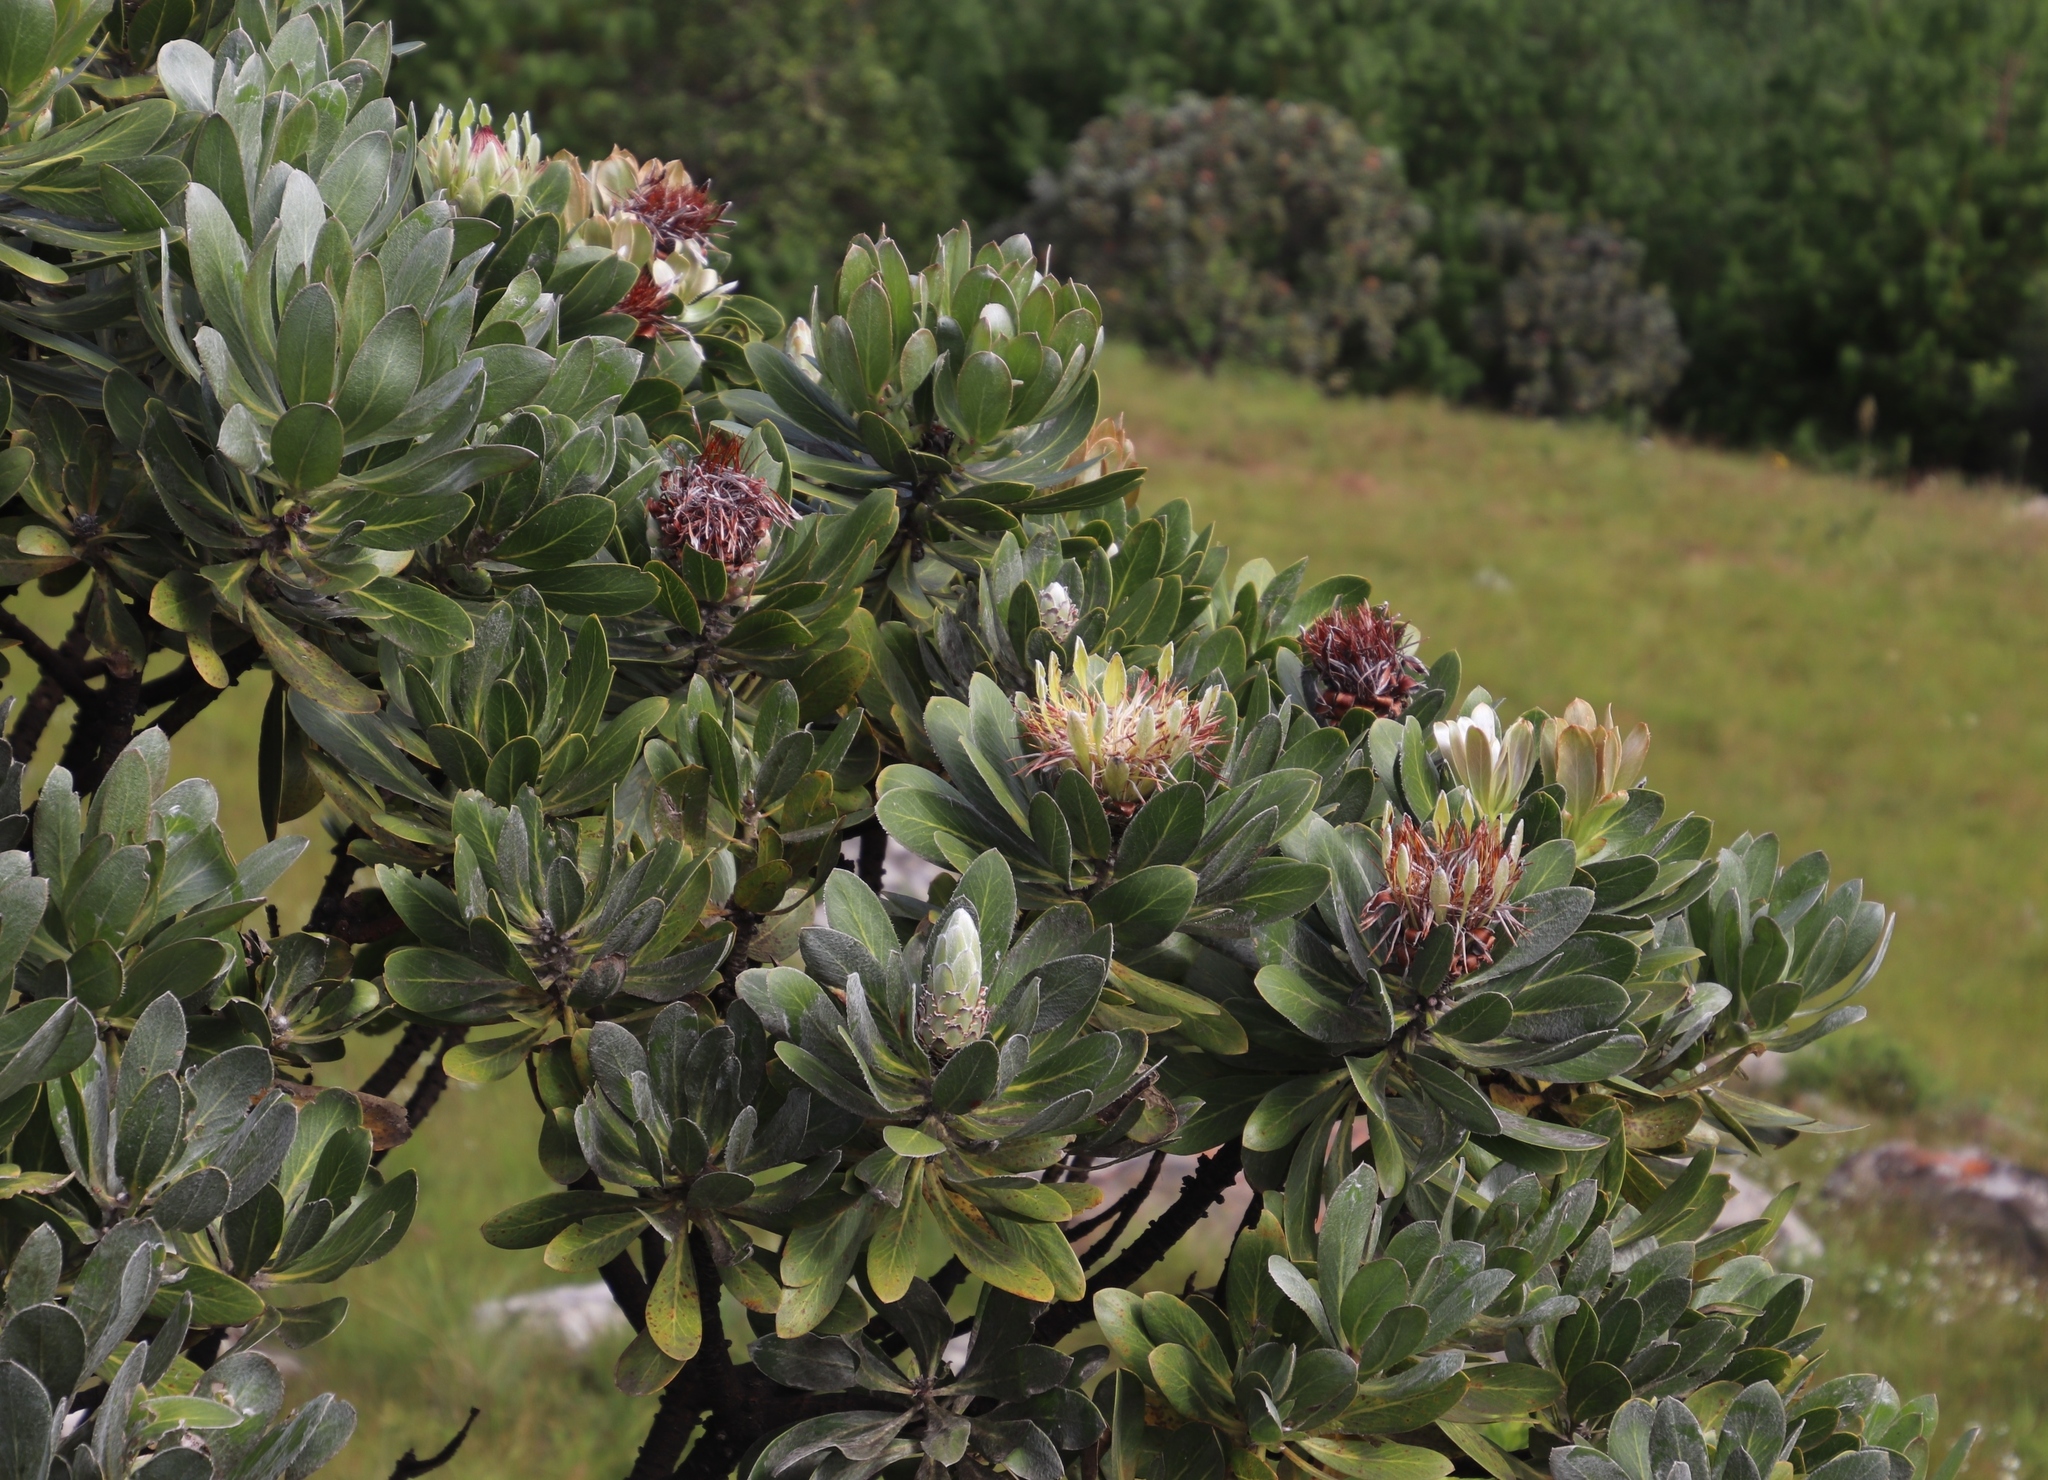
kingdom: Plantae
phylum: Tracheophyta
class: Magnoliopsida
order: Proteales
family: Proteaceae
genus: Protea
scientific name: Protea roupelliae
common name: Silver sugarbush
